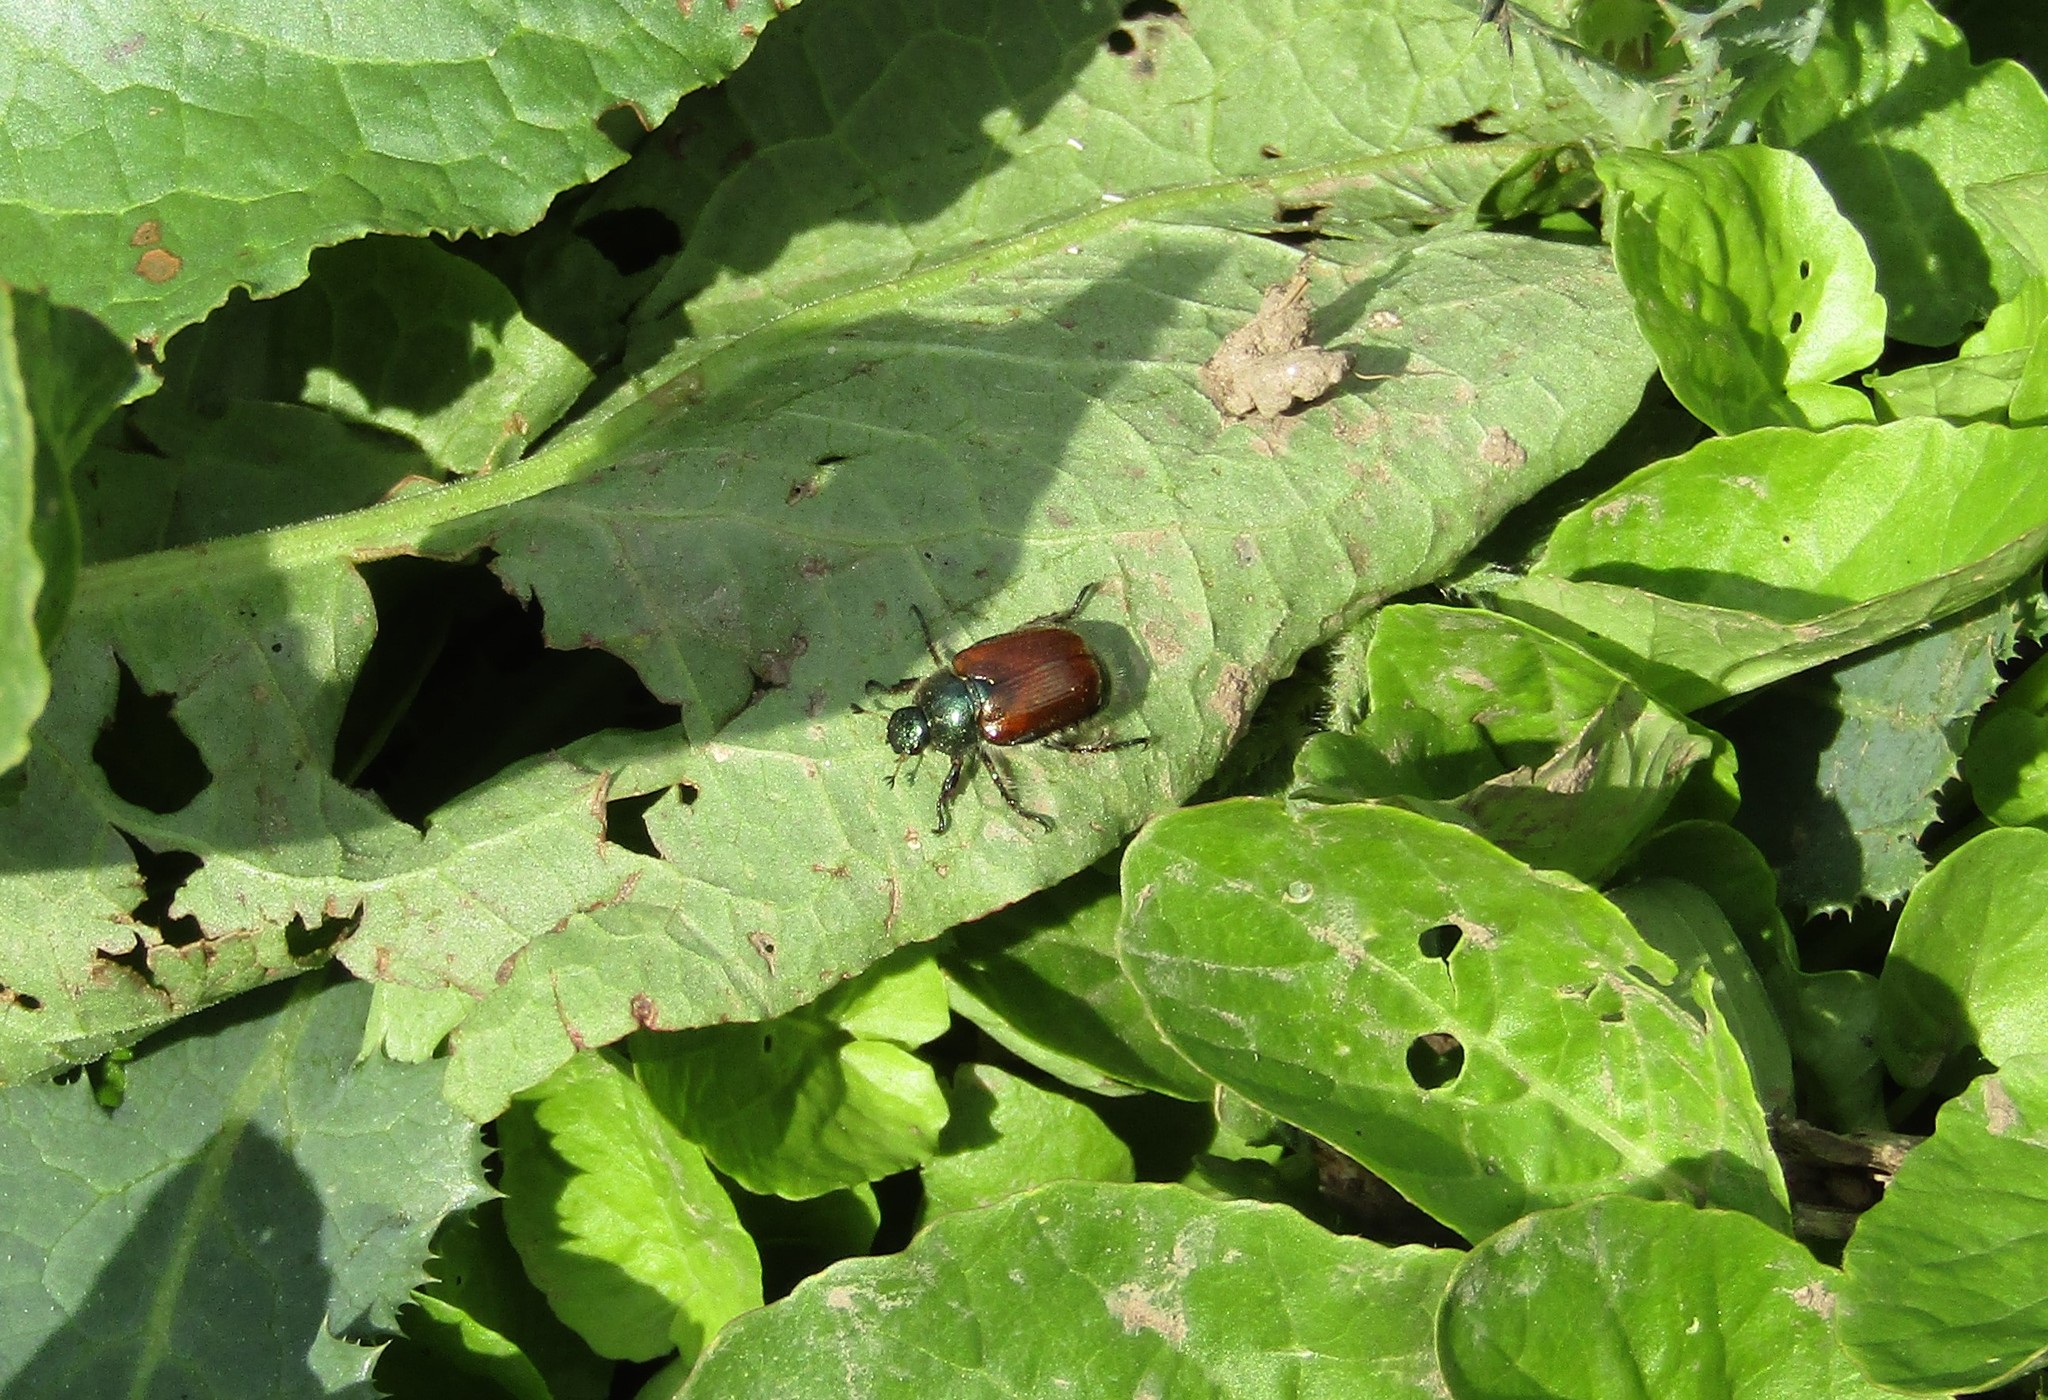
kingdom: Animalia
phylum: Arthropoda
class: Insecta
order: Coleoptera
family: Scarabaeidae
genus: Phyllopertha
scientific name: Phyllopertha horticola
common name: Garden chafer
